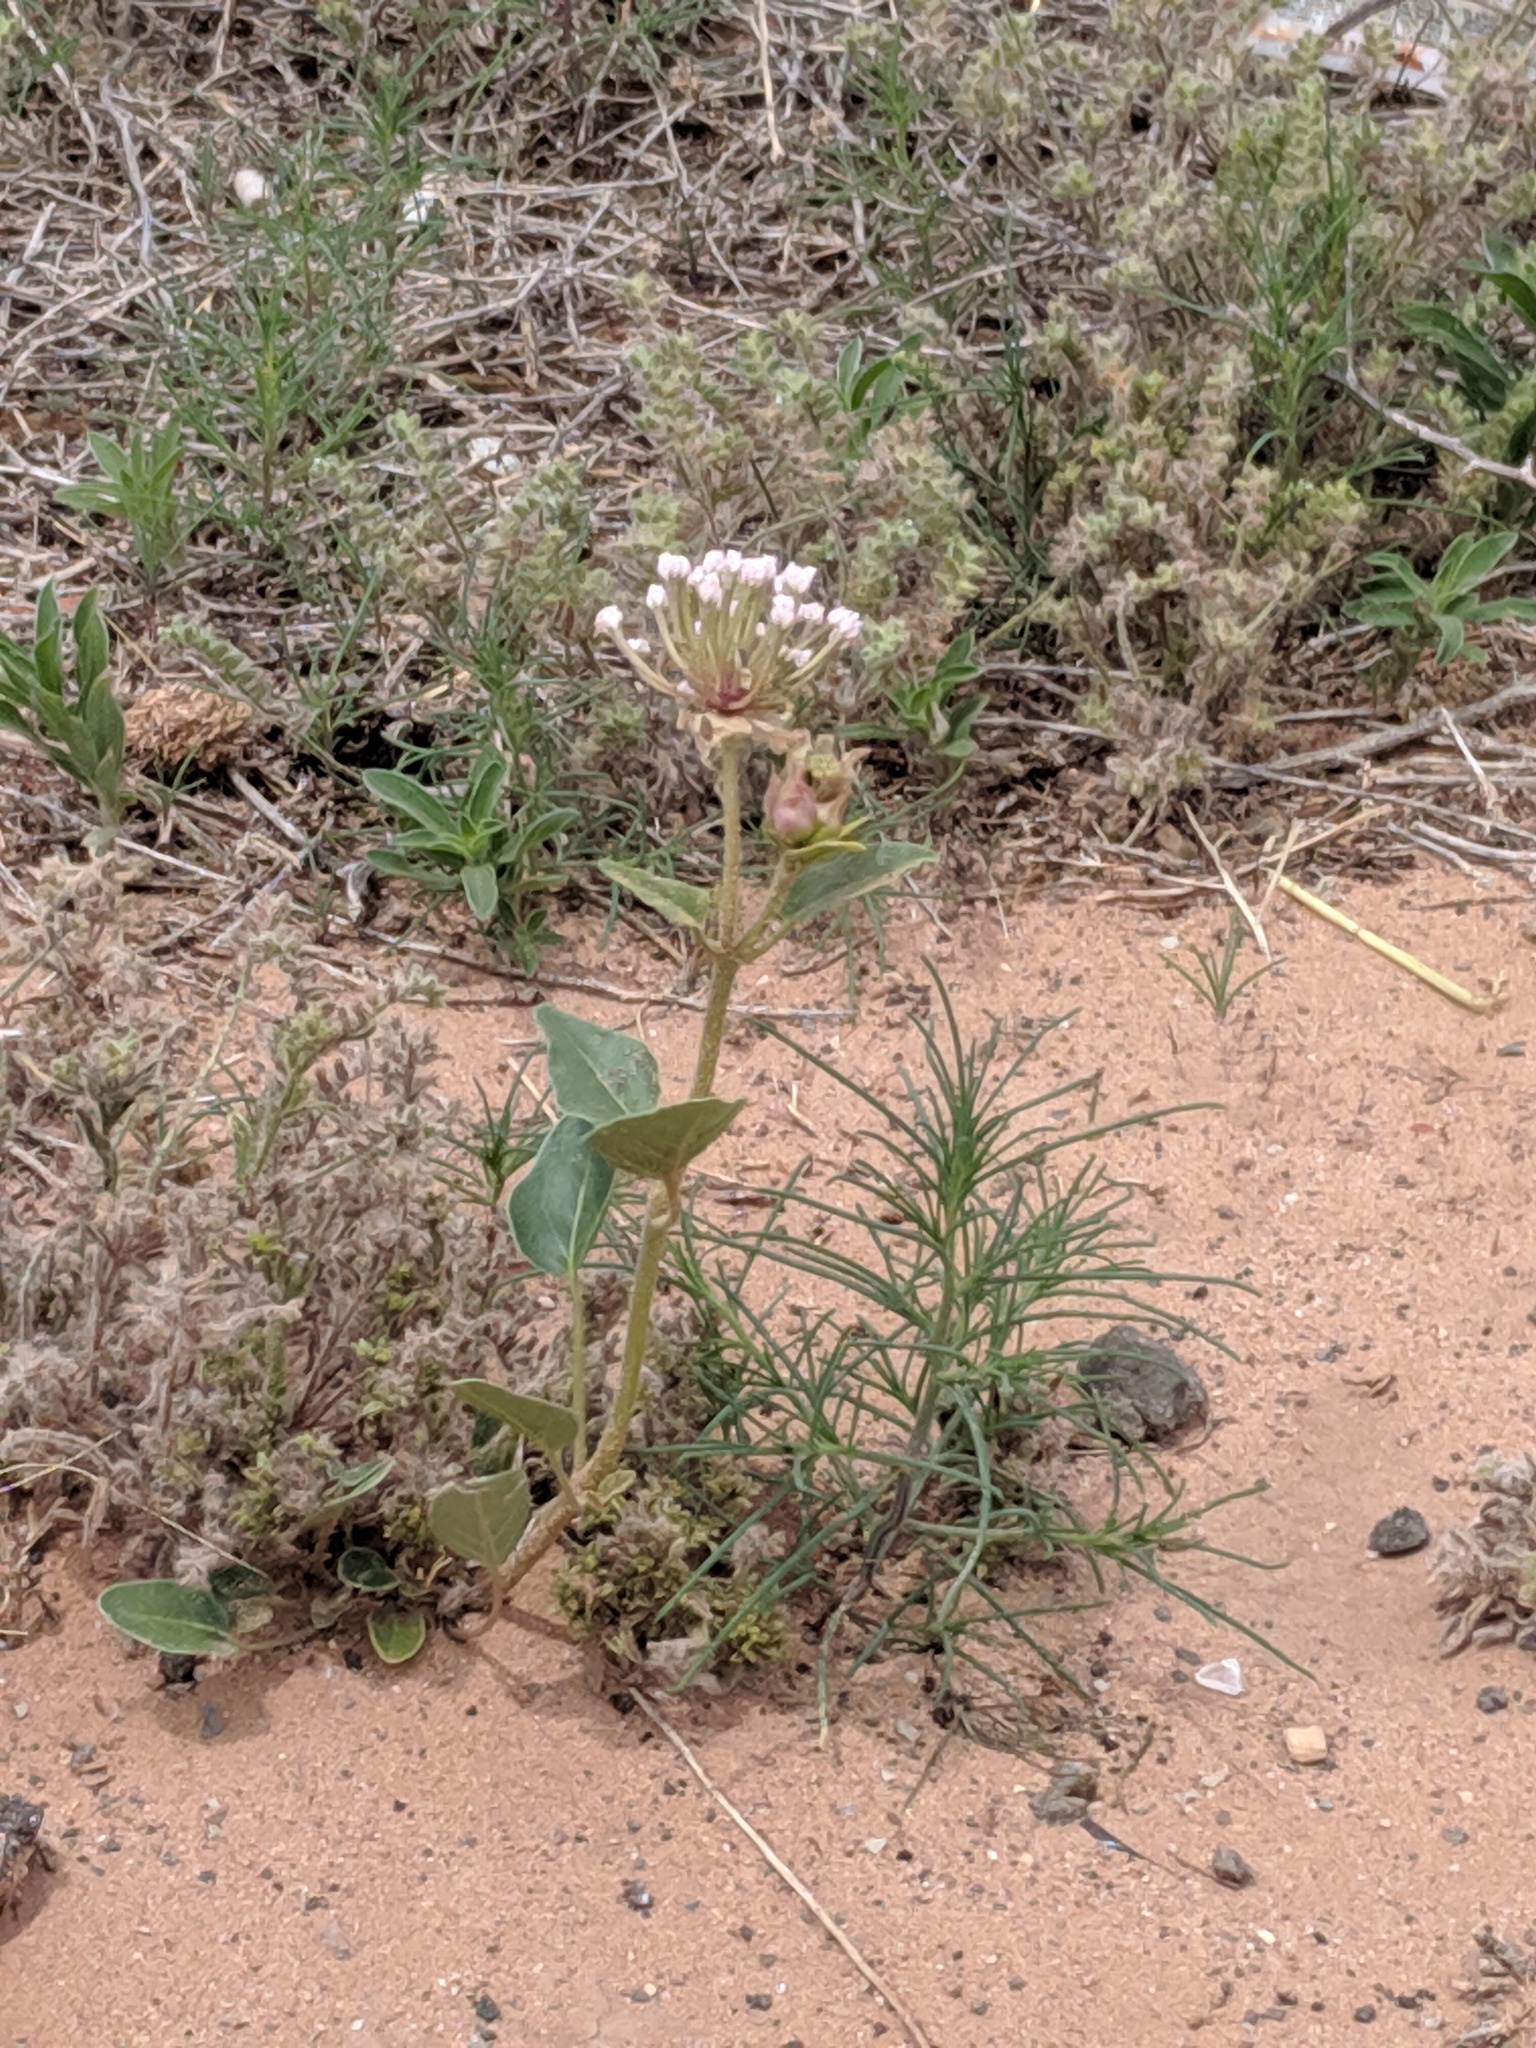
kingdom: Plantae
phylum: Tracheophyta
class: Magnoliopsida
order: Caryophyllales
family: Nyctaginaceae
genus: Abronia
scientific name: Abronia fragrans
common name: Fragrant sand-verbena
